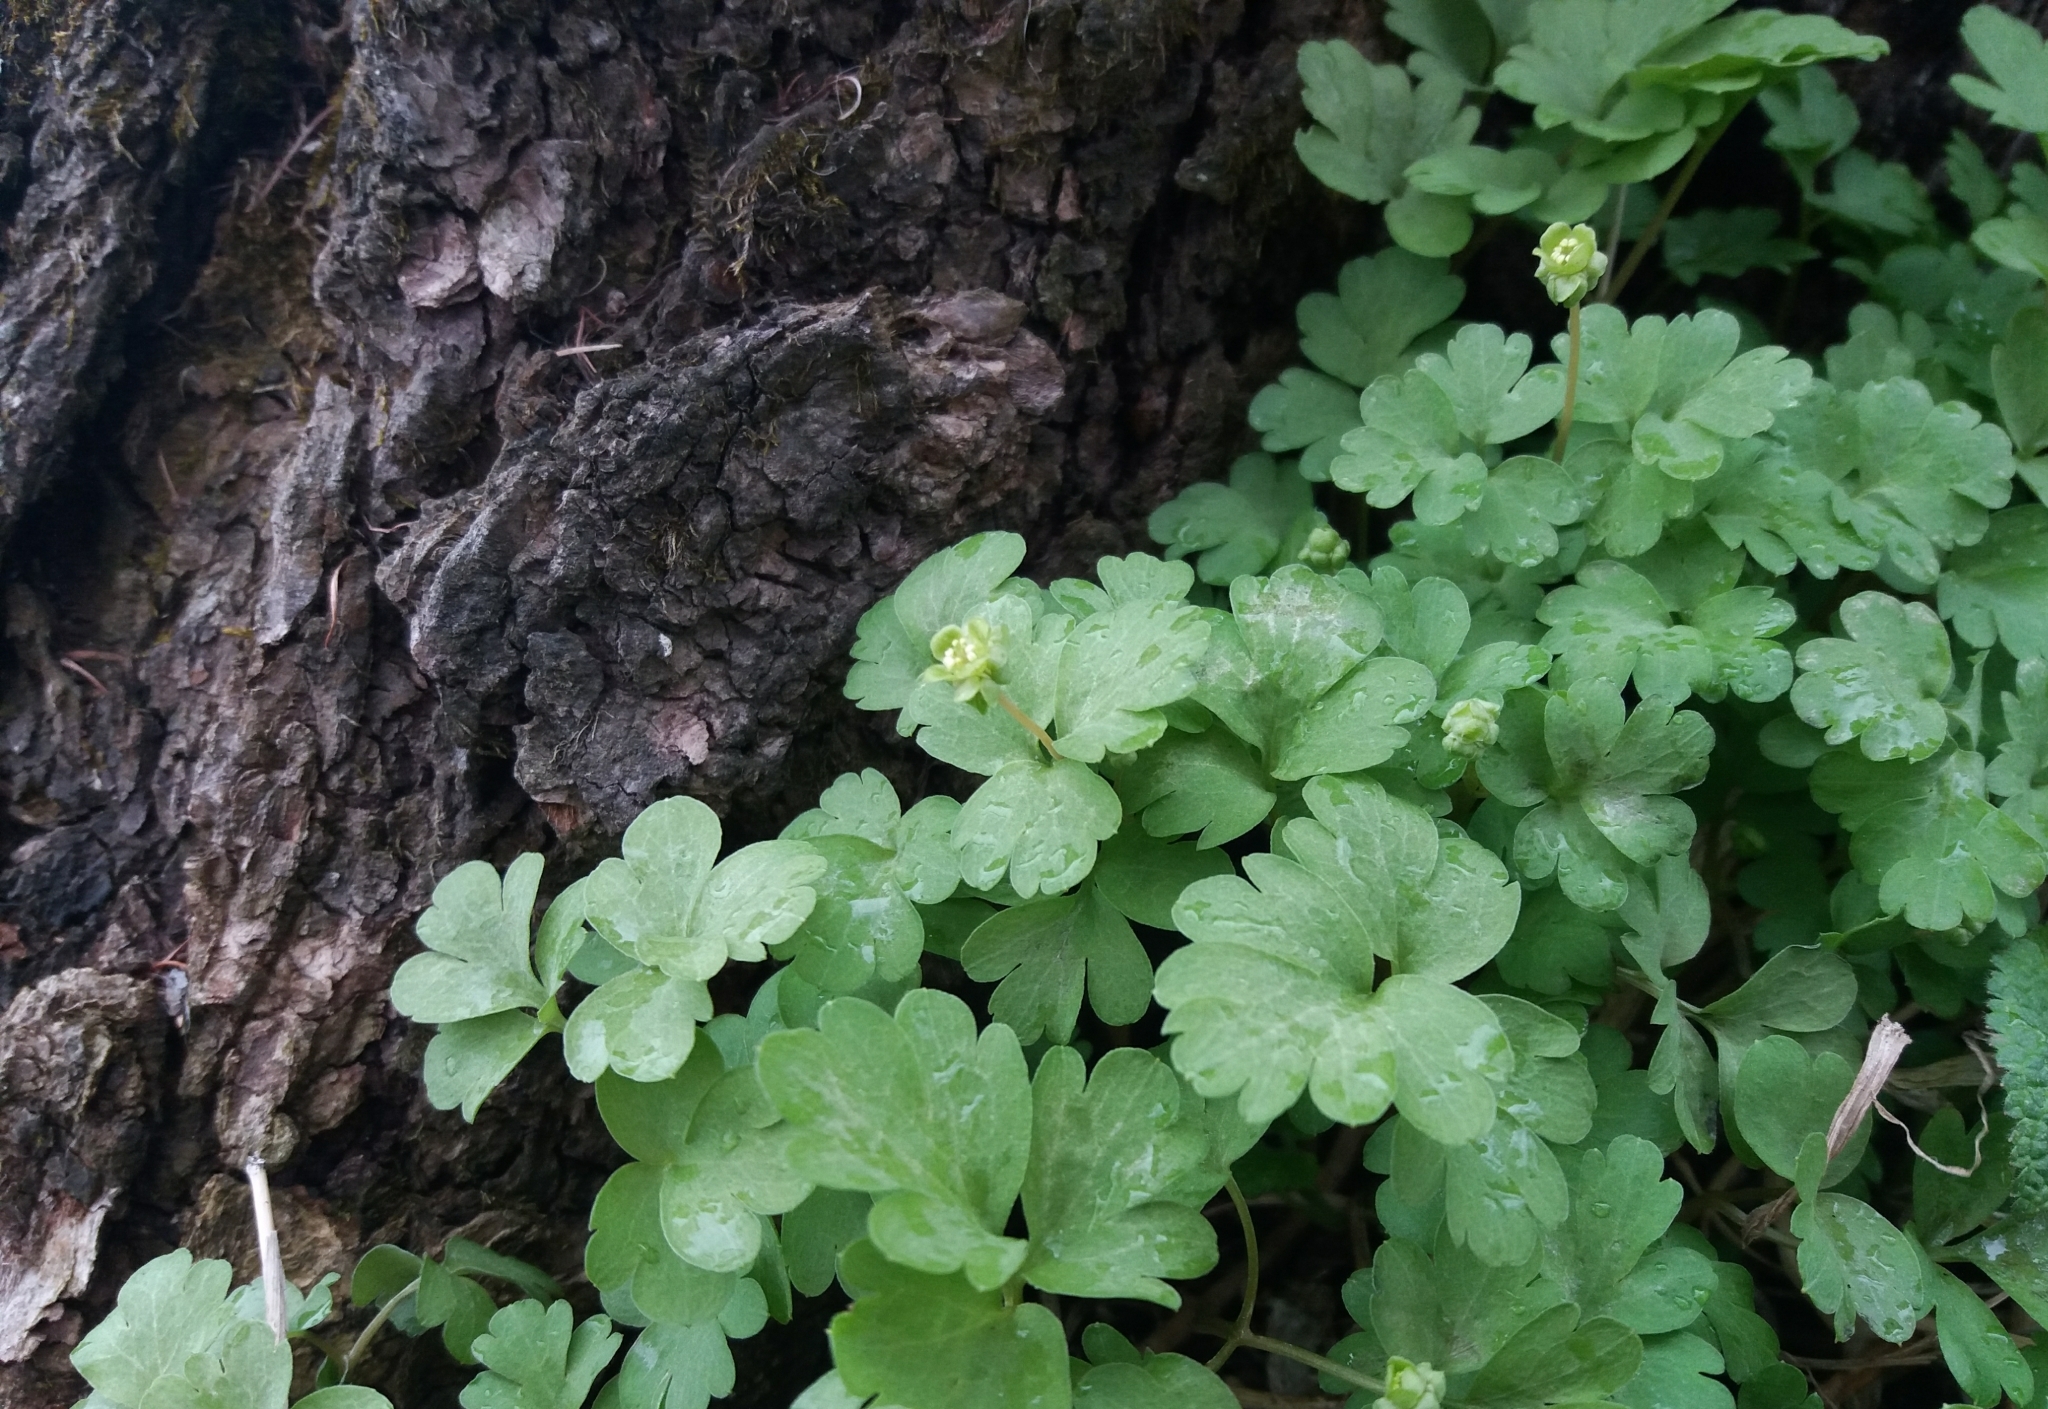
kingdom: Plantae
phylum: Tracheophyta
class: Magnoliopsida
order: Dipsacales
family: Viburnaceae
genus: Adoxa
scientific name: Adoxa moschatellina
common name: Moschatel
